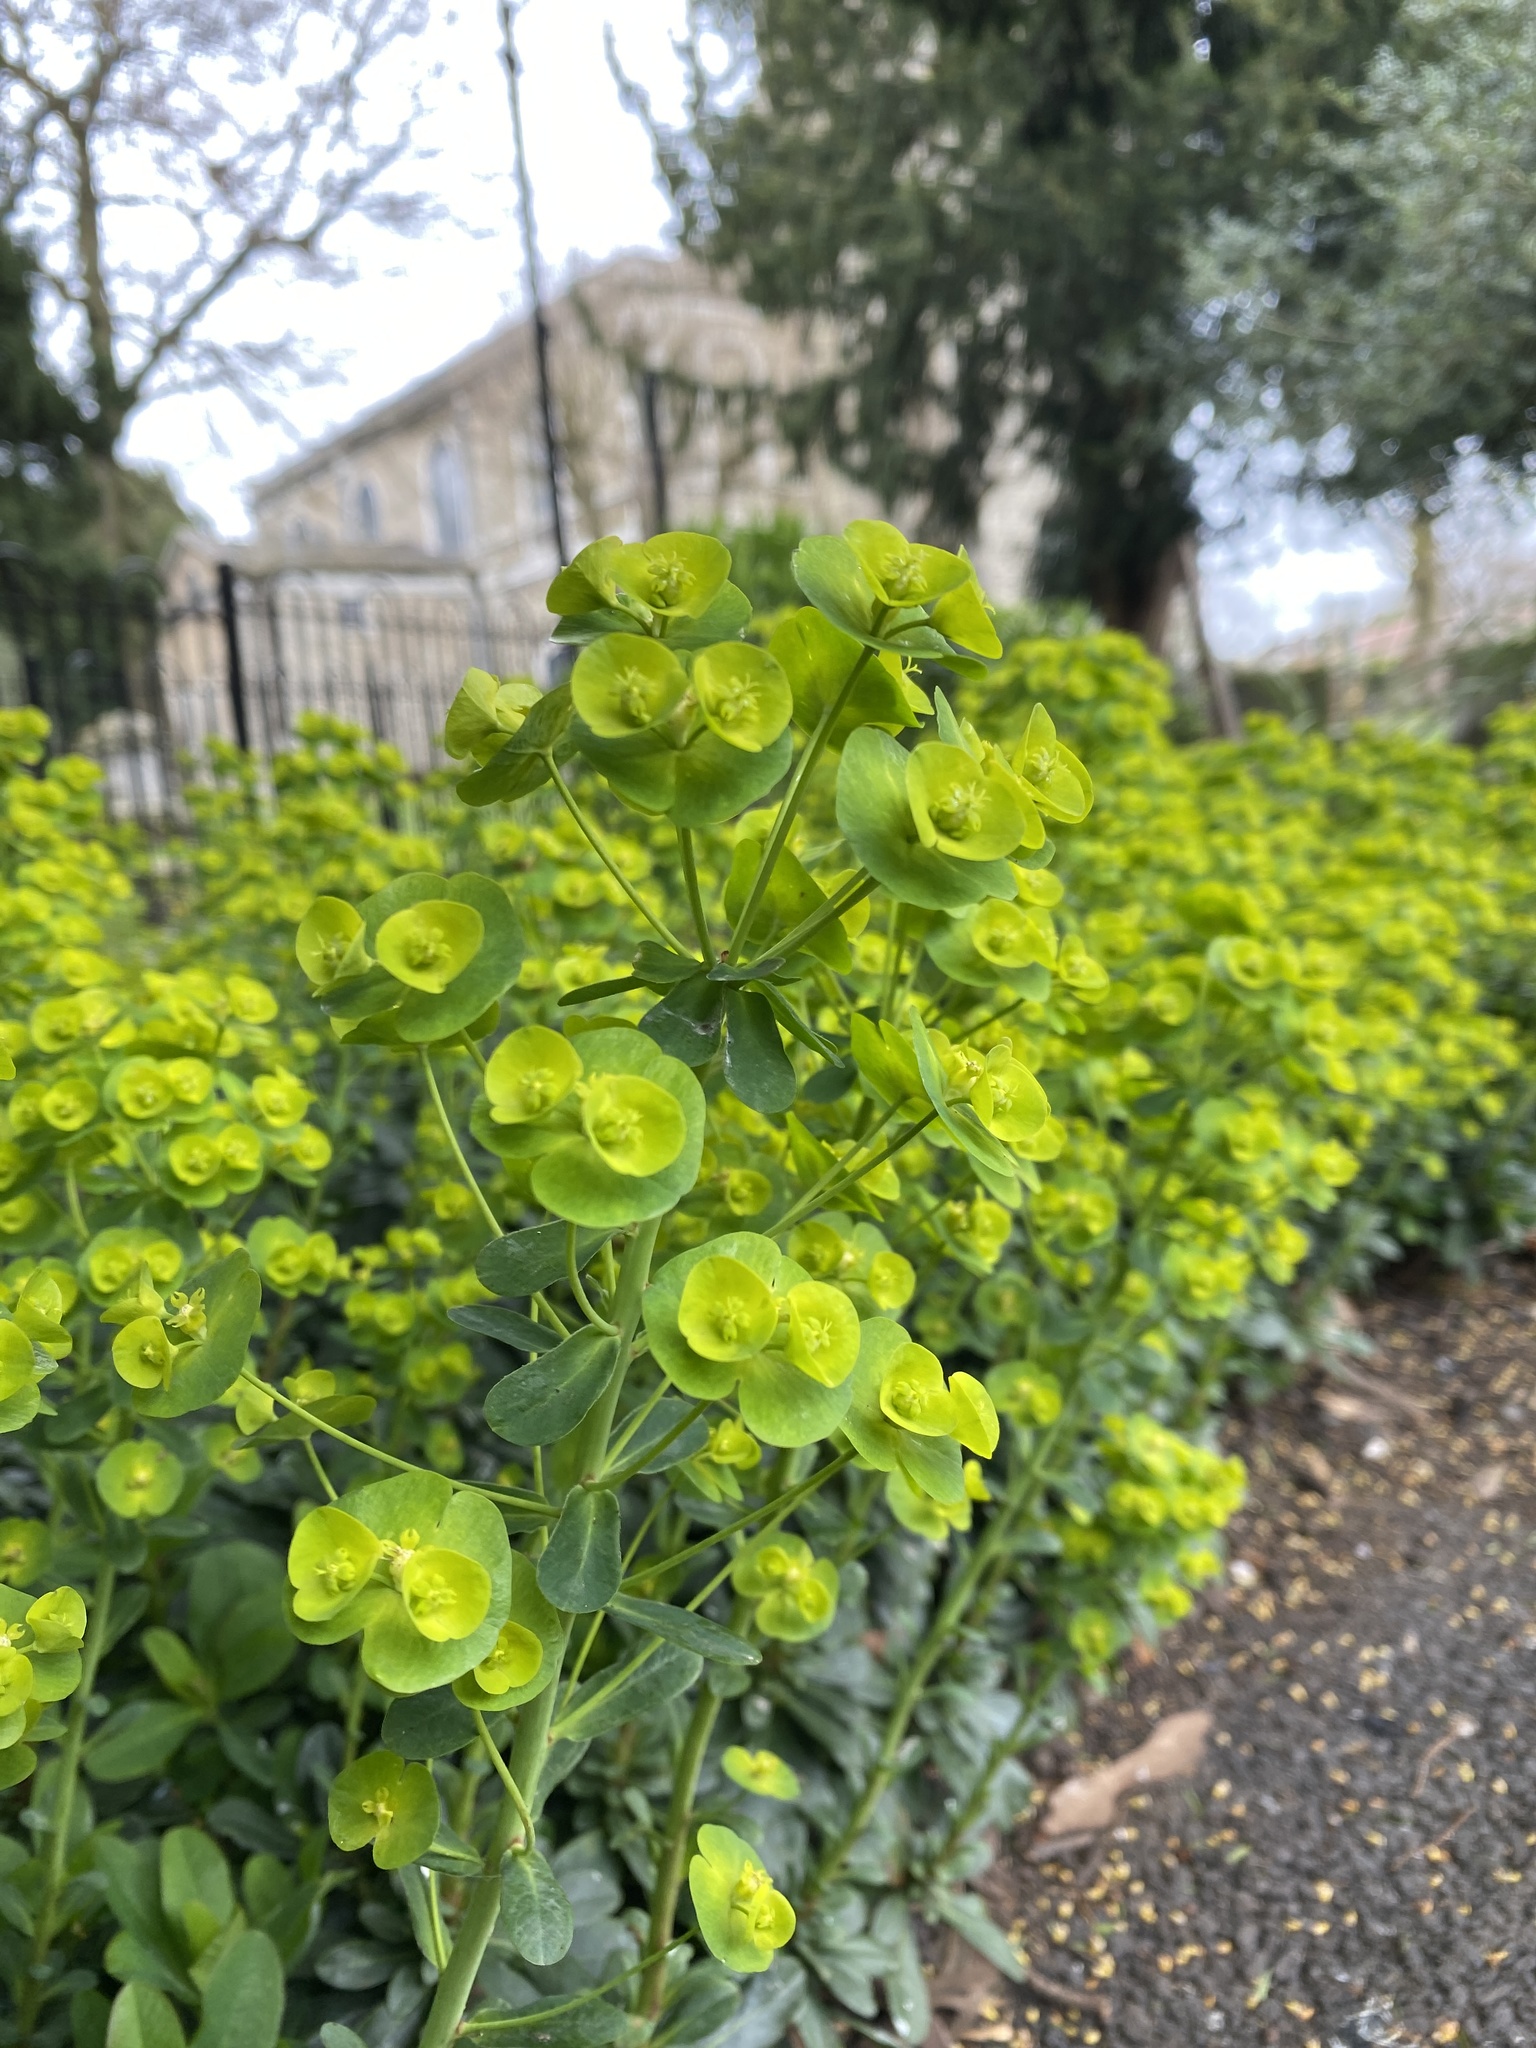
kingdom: Plantae
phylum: Tracheophyta
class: Magnoliopsida
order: Malpighiales
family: Euphorbiaceae
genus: Euphorbia
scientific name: Euphorbia amygdaloides
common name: Wood spurge
